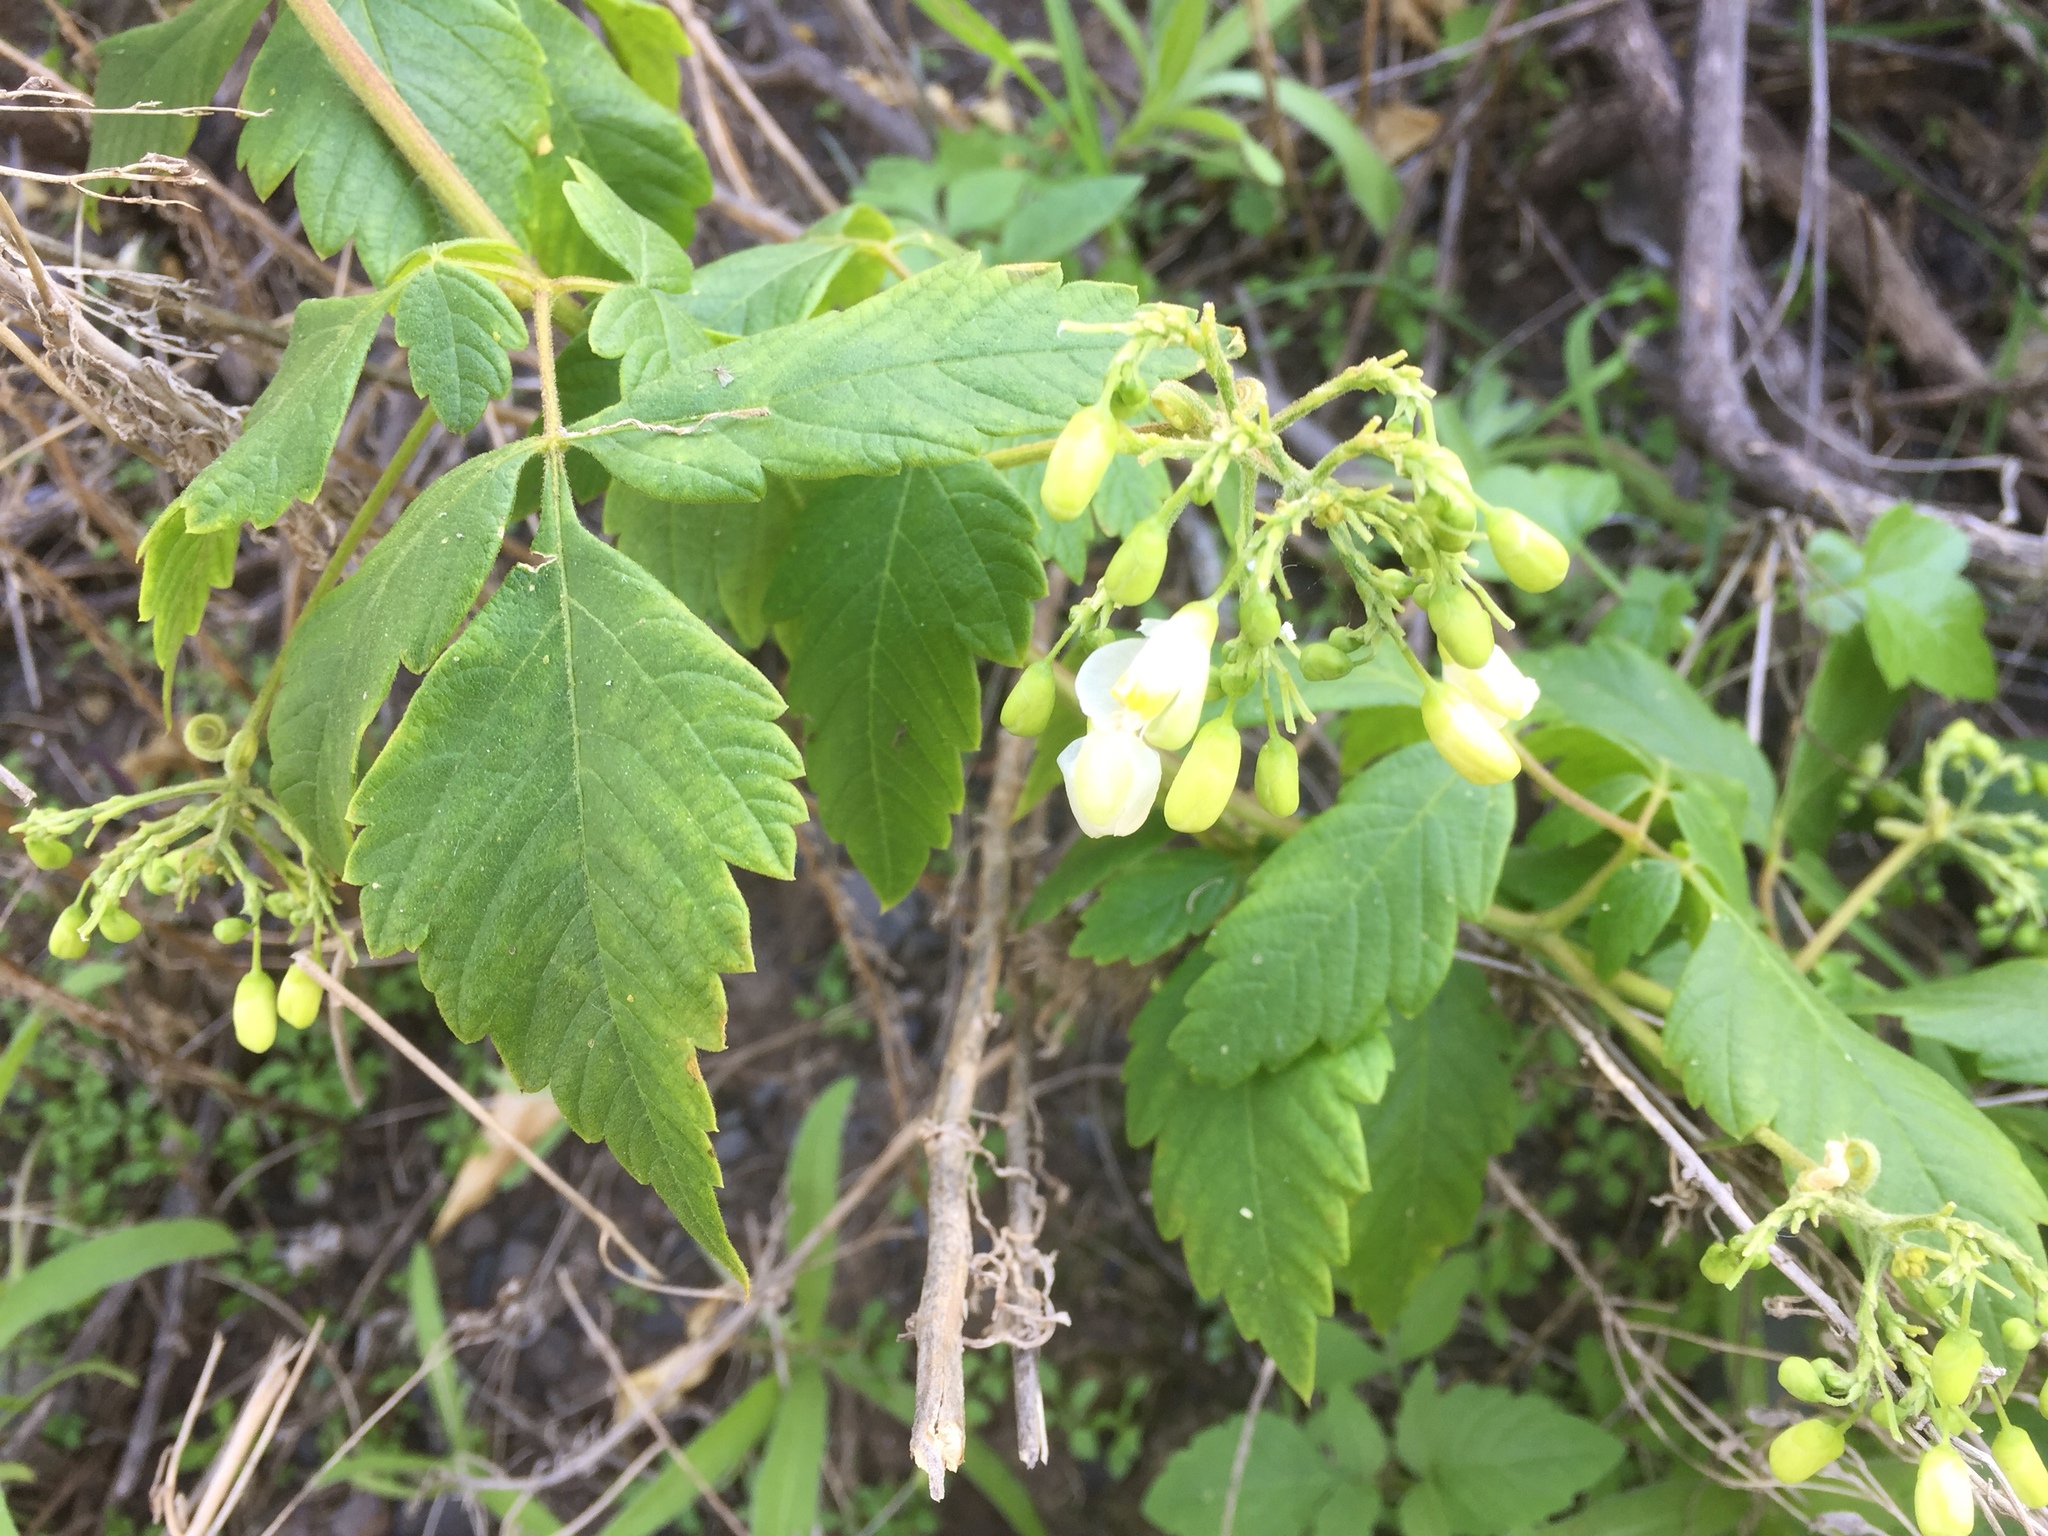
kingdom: Plantae
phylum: Tracheophyta
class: Magnoliopsida
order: Sapindales
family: Sapindaceae
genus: Cardiospermum
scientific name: Cardiospermum grandiflorum
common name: Balloon vine
